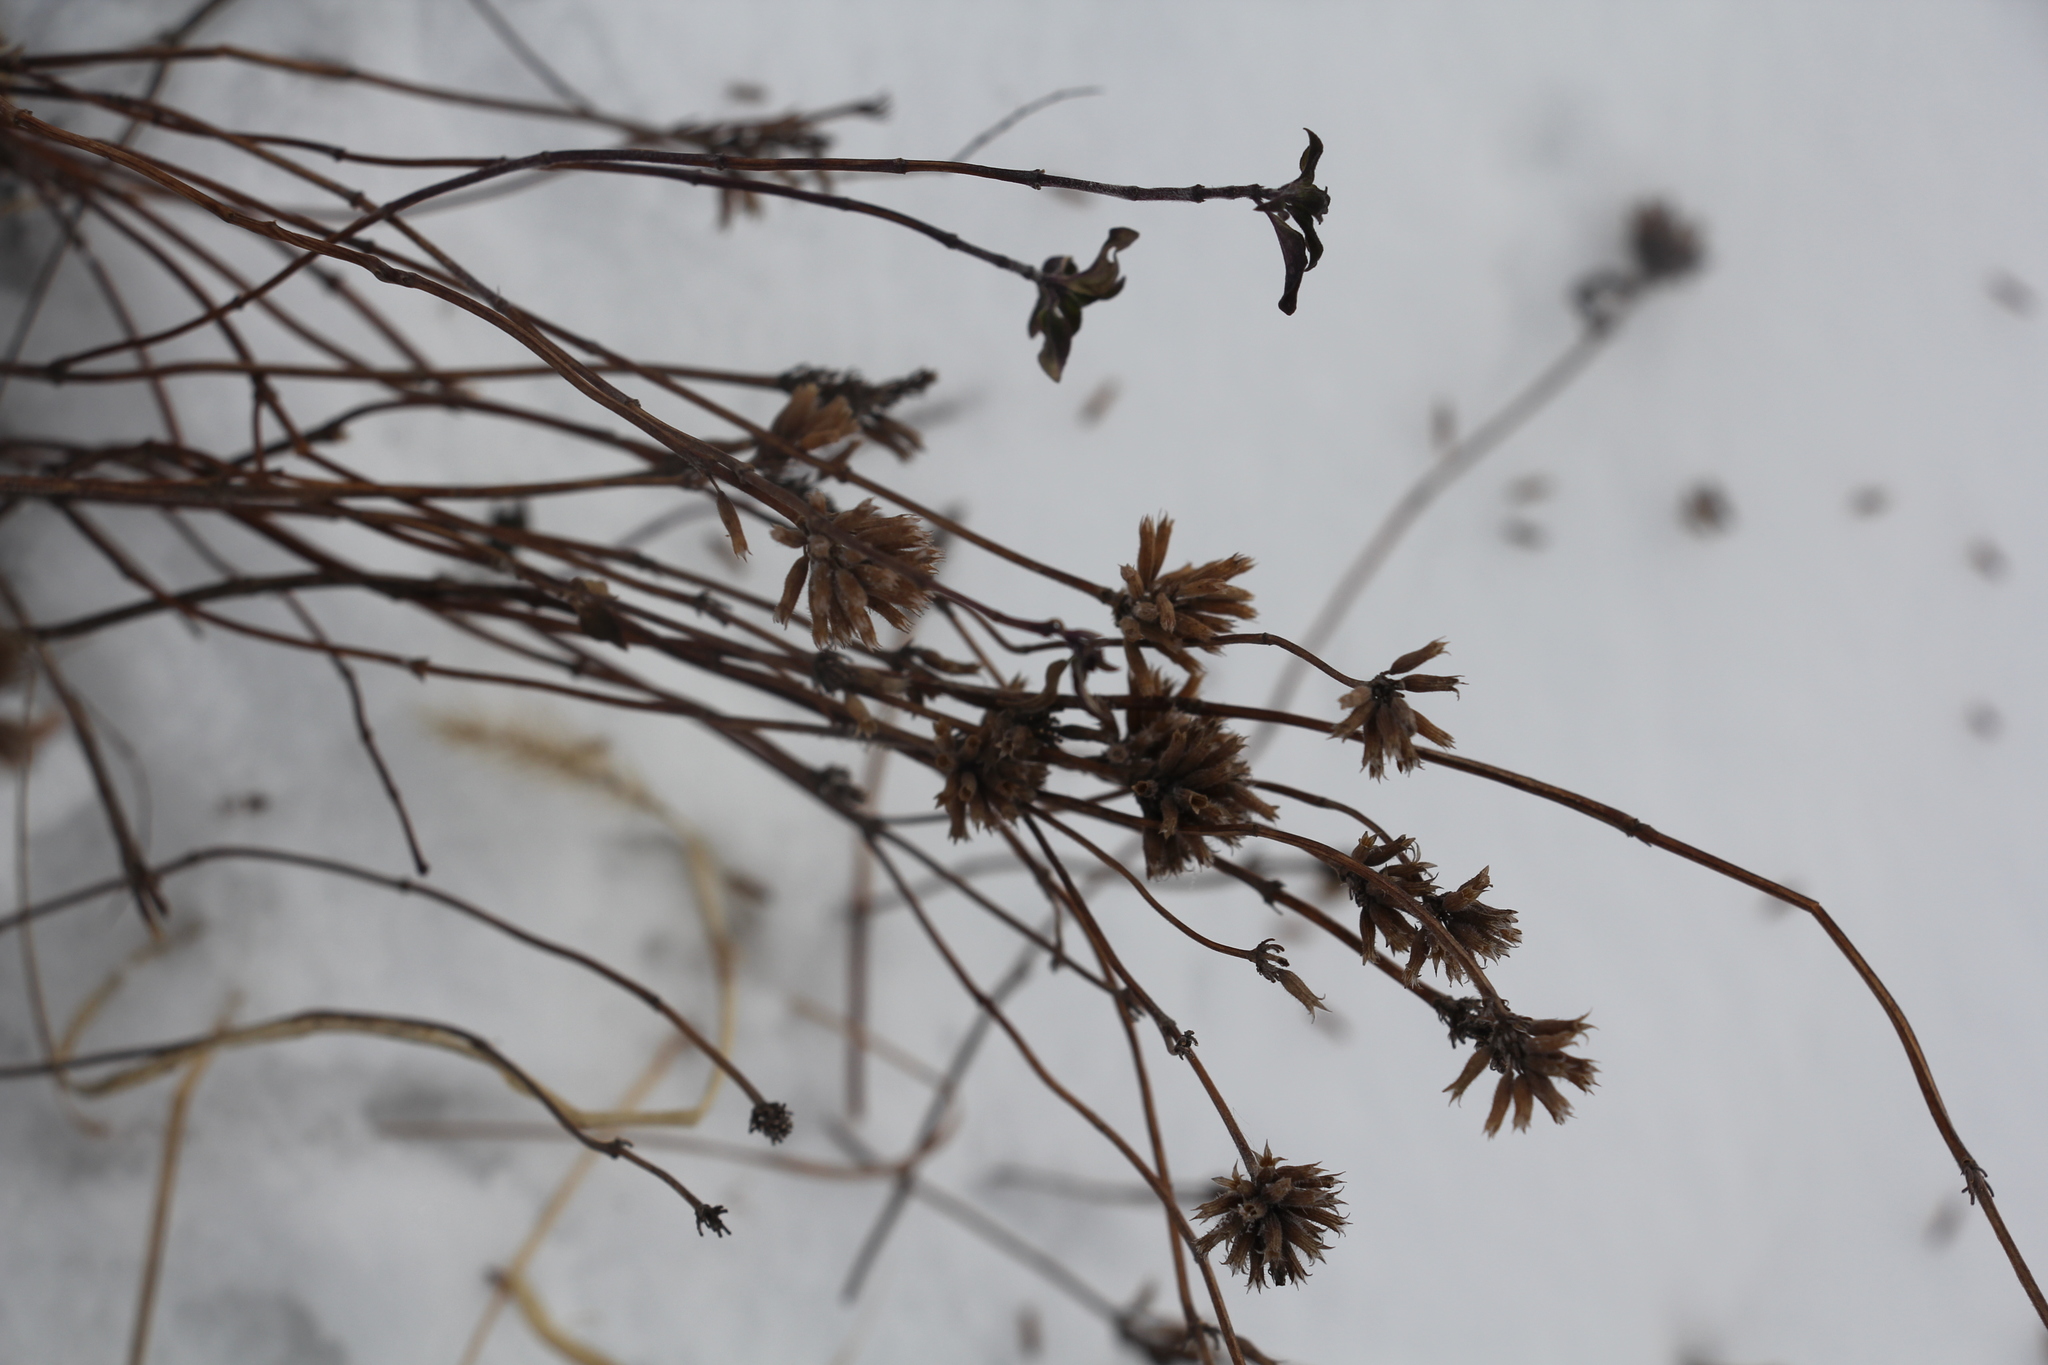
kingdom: Plantae
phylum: Tracheophyta
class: Magnoliopsida
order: Lamiales
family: Lamiaceae
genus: Ziziphora
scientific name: Ziziphora clinopodioides
